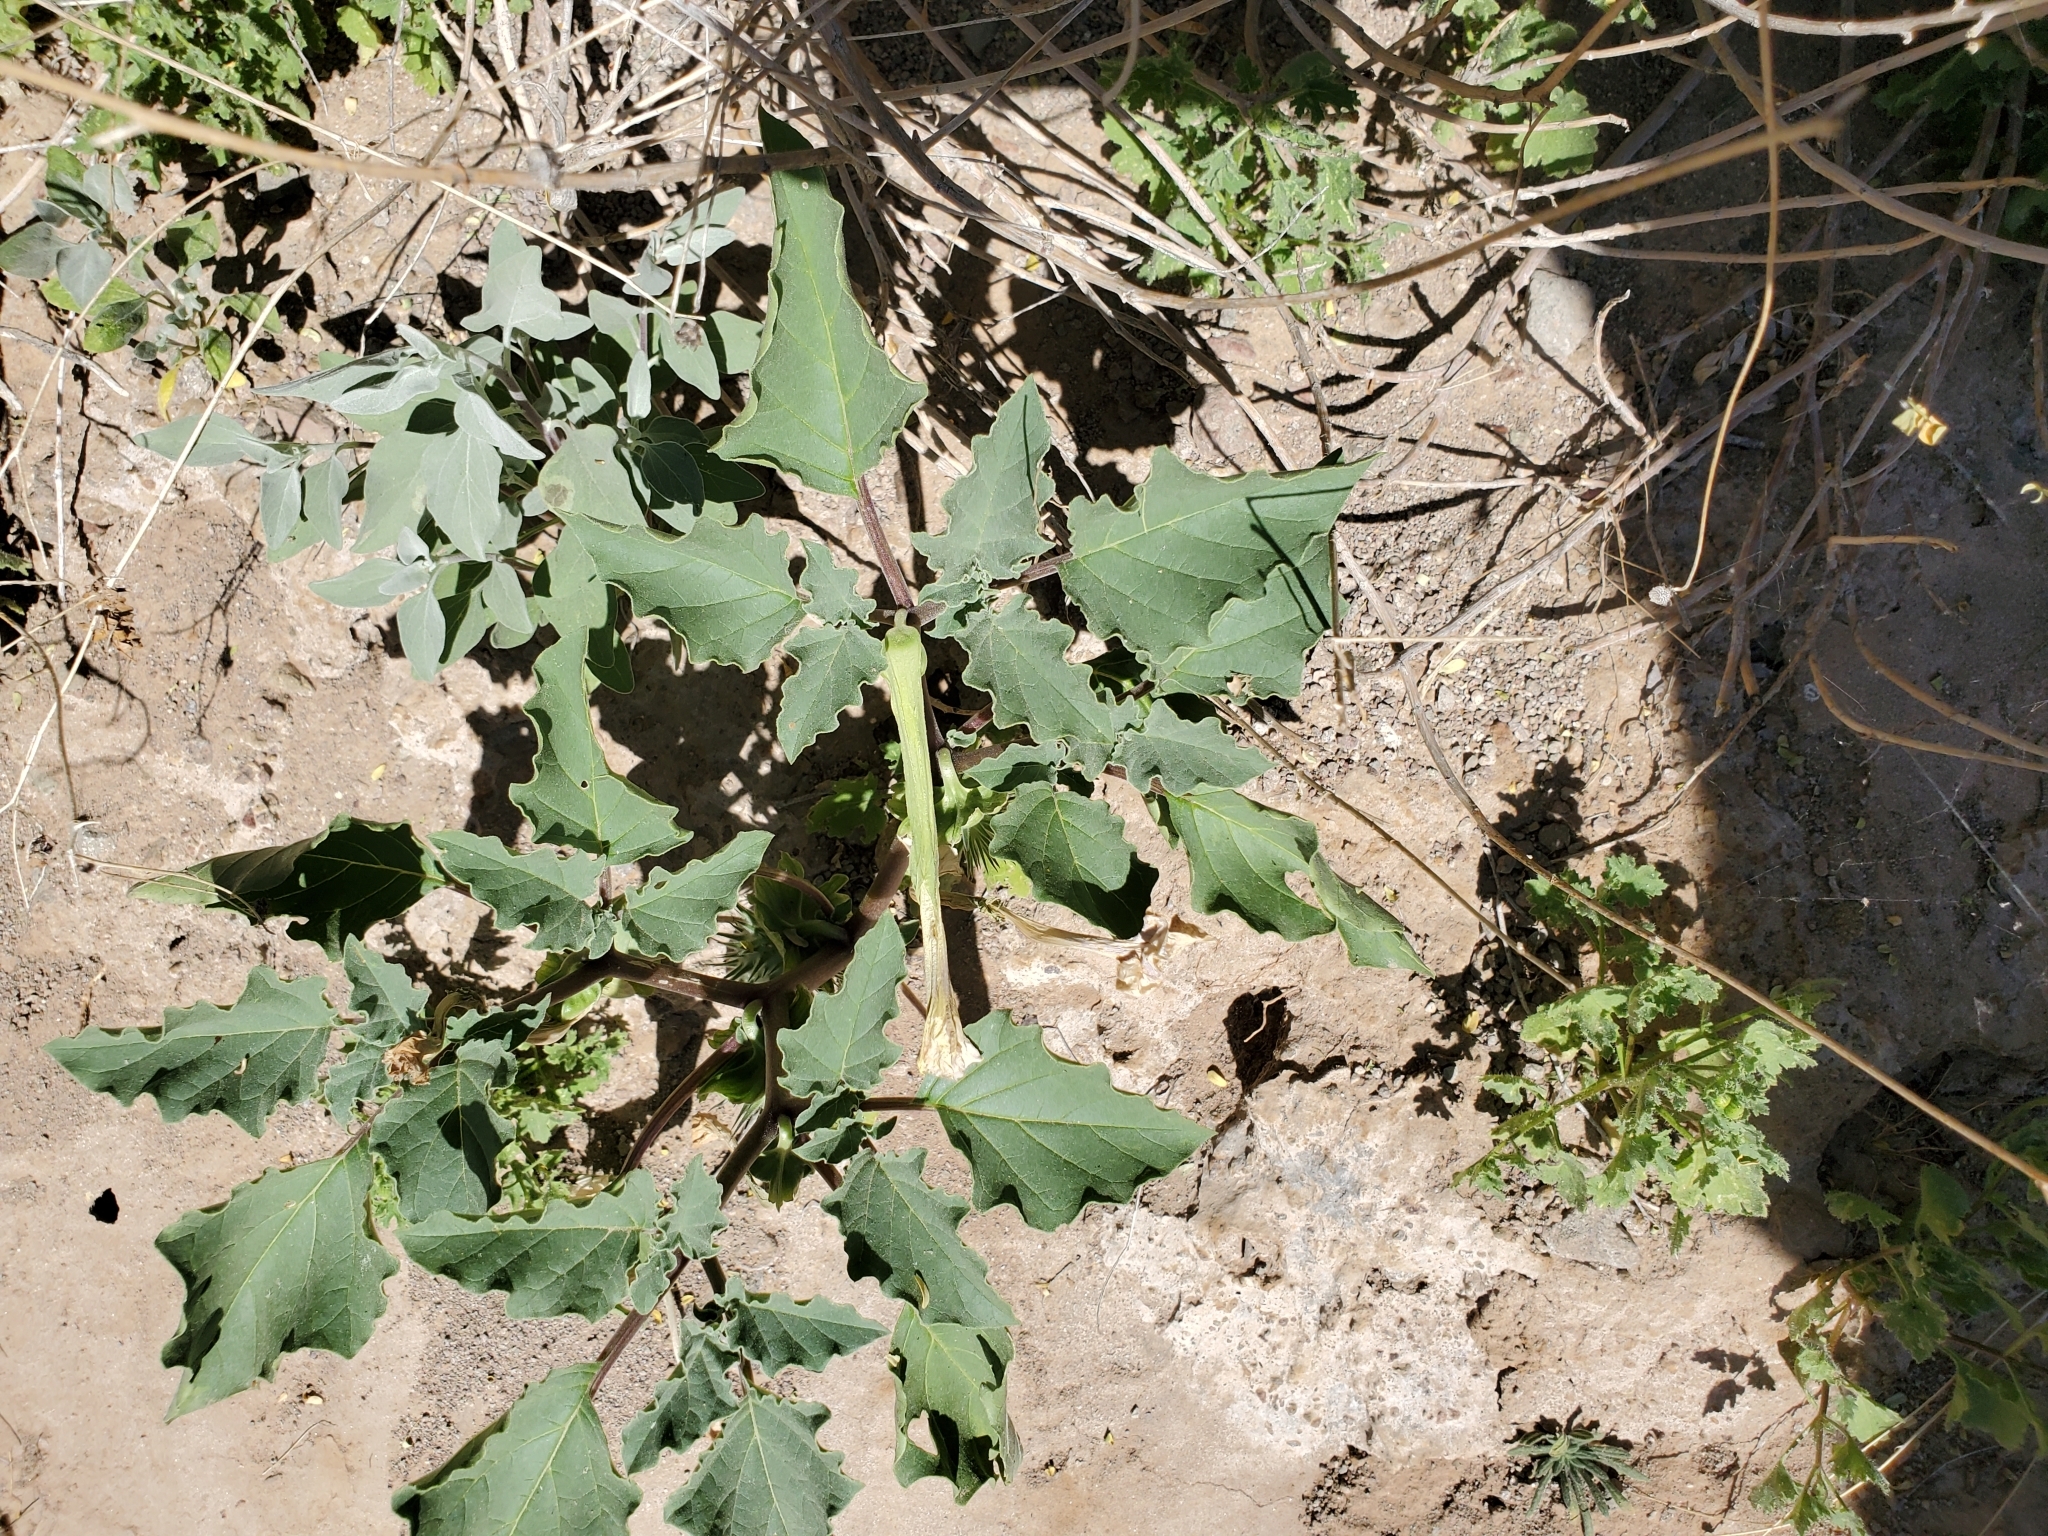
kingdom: Plantae
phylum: Tracheophyta
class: Magnoliopsida
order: Solanales
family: Solanaceae
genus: Datura
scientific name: Datura discolor
